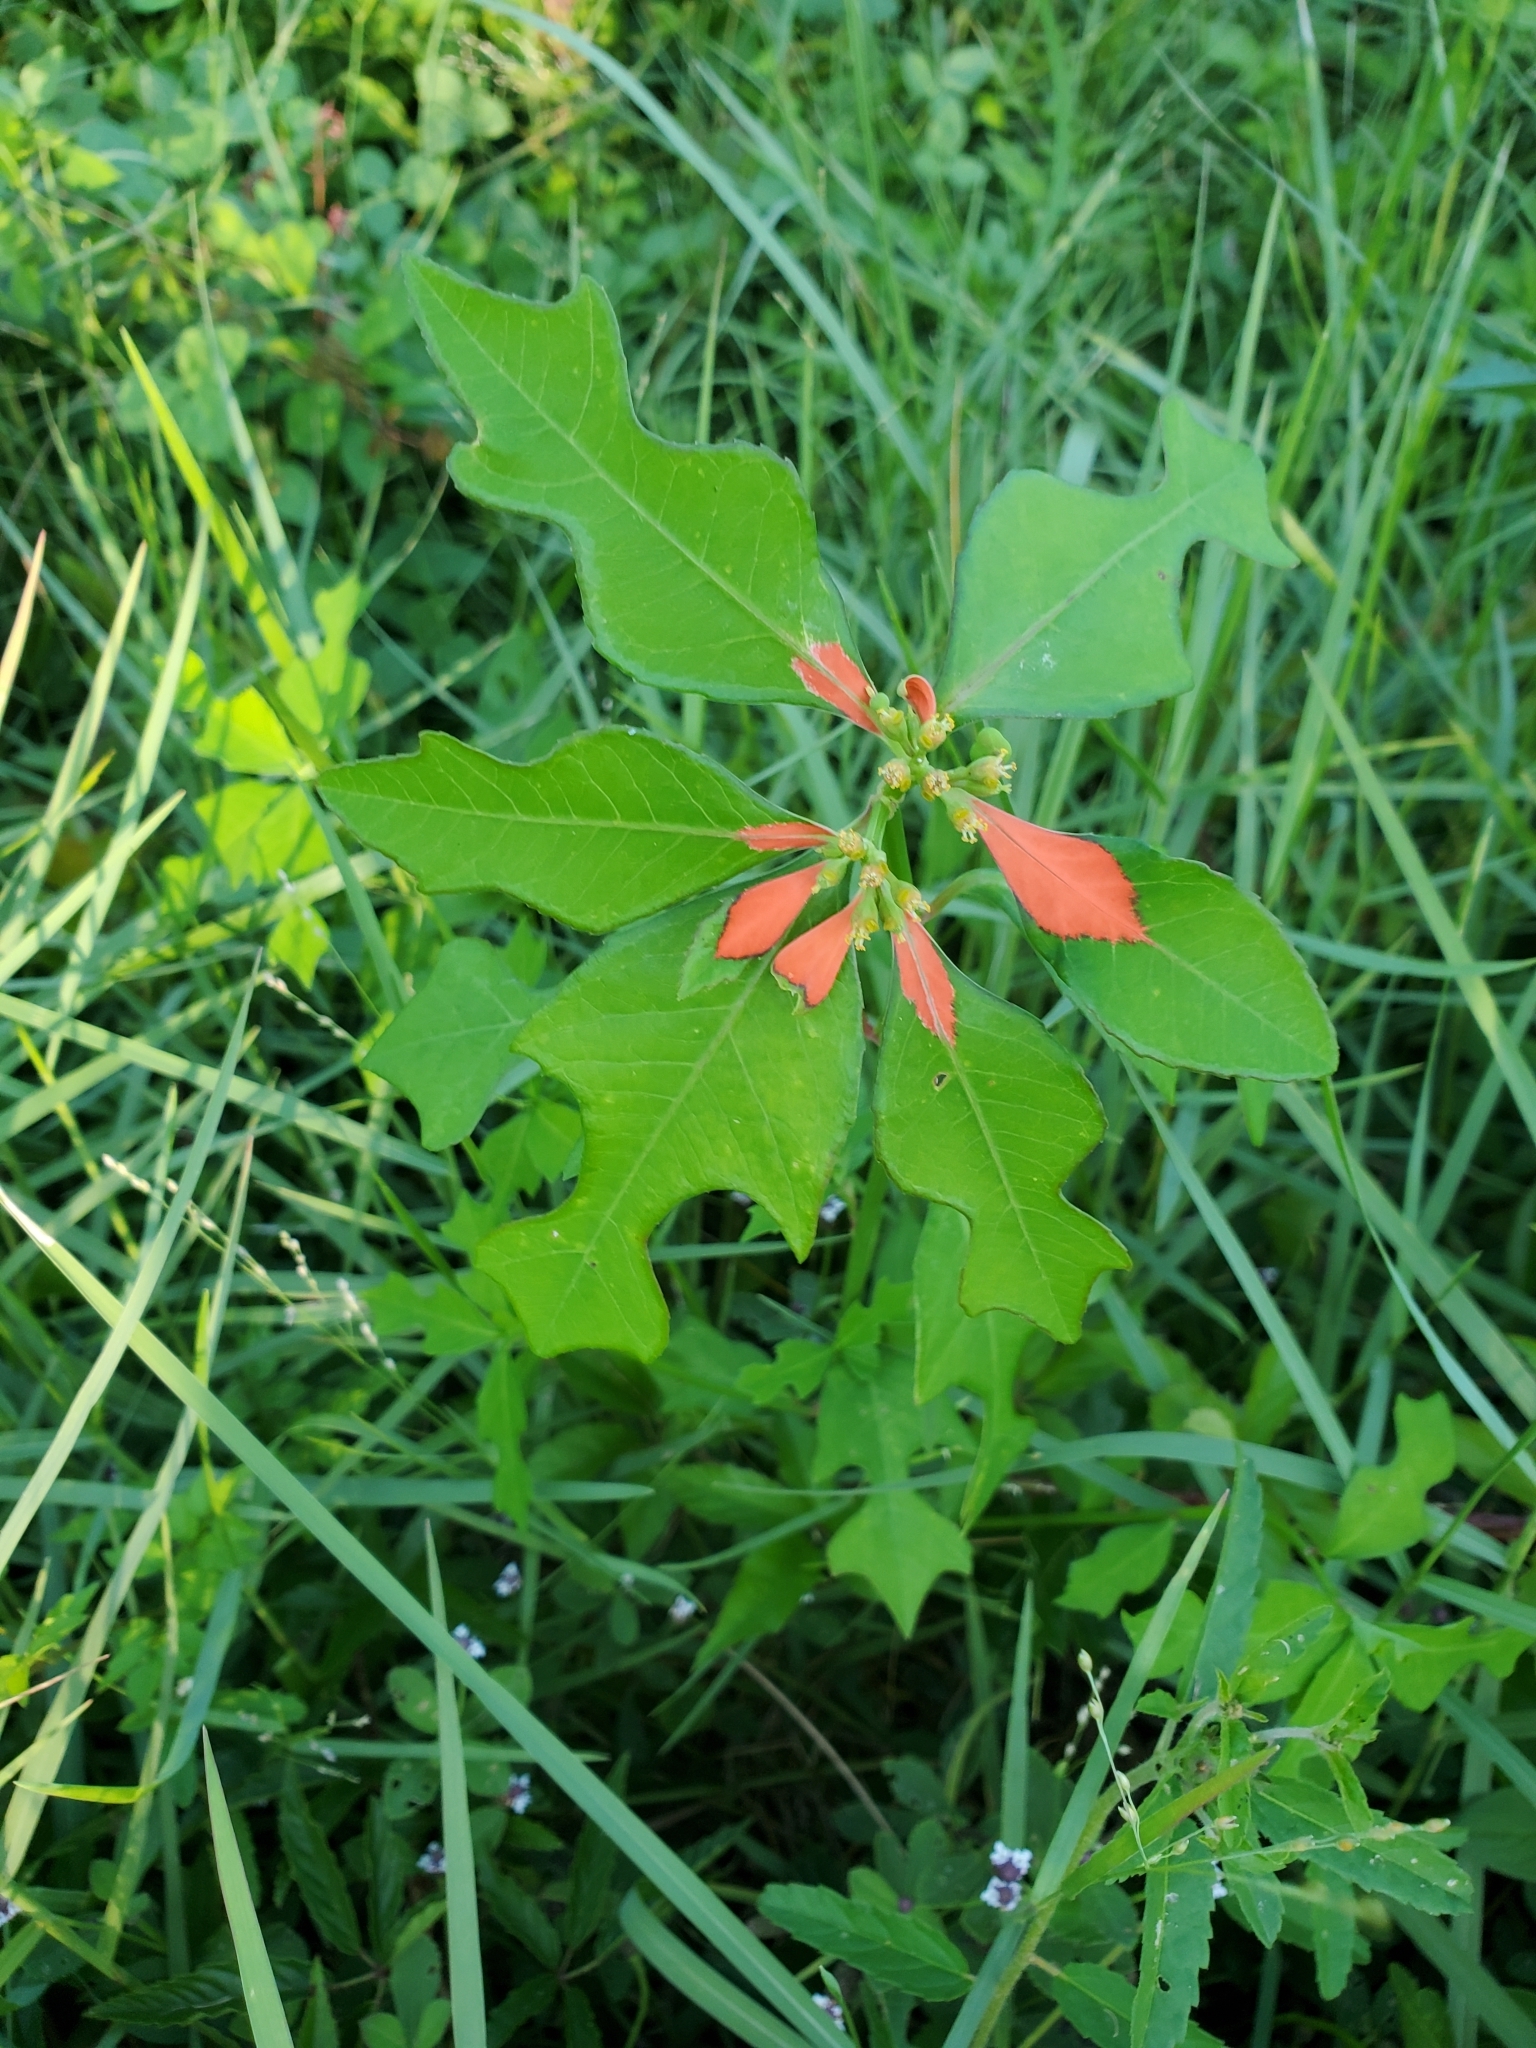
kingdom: Plantae
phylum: Tracheophyta
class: Magnoliopsida
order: Malpighiales
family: Euphorbiaceae
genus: Euphorbia
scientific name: Euphorbia heterophylla
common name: Mexican fireplant
